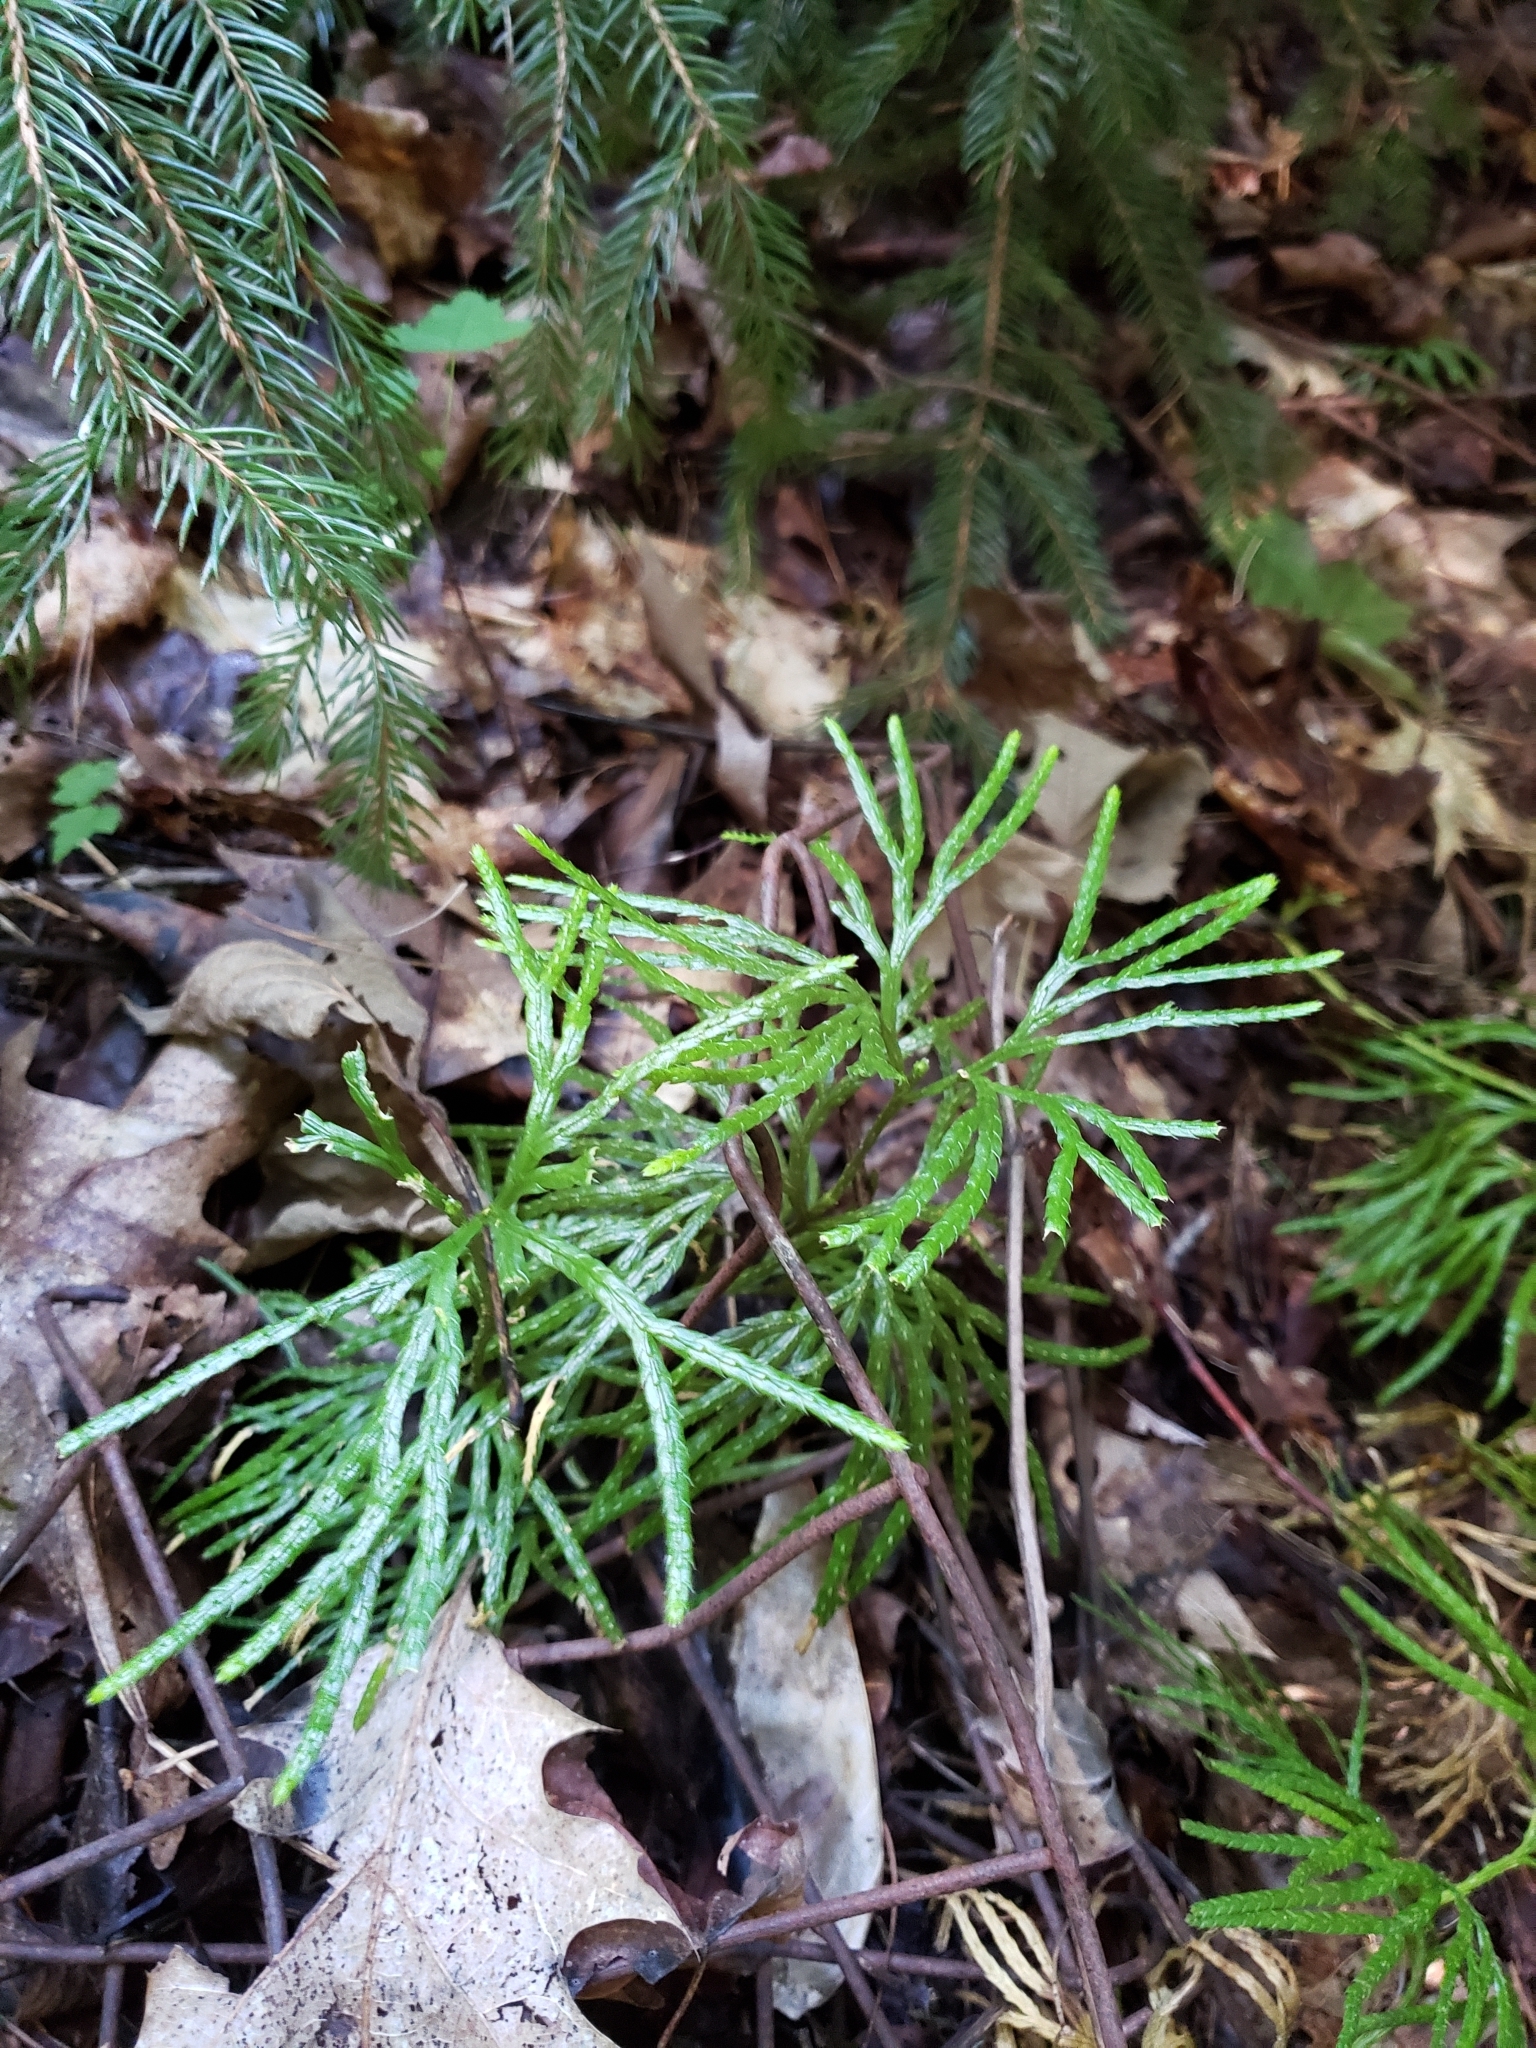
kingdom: Plantae
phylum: Tracheophyta
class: Lycopodiopsida
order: Lycopodiales
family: Lycopodiaceae
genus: Diphasiastrum
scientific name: Diphasiastrum digitatum
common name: Southern running-pine
